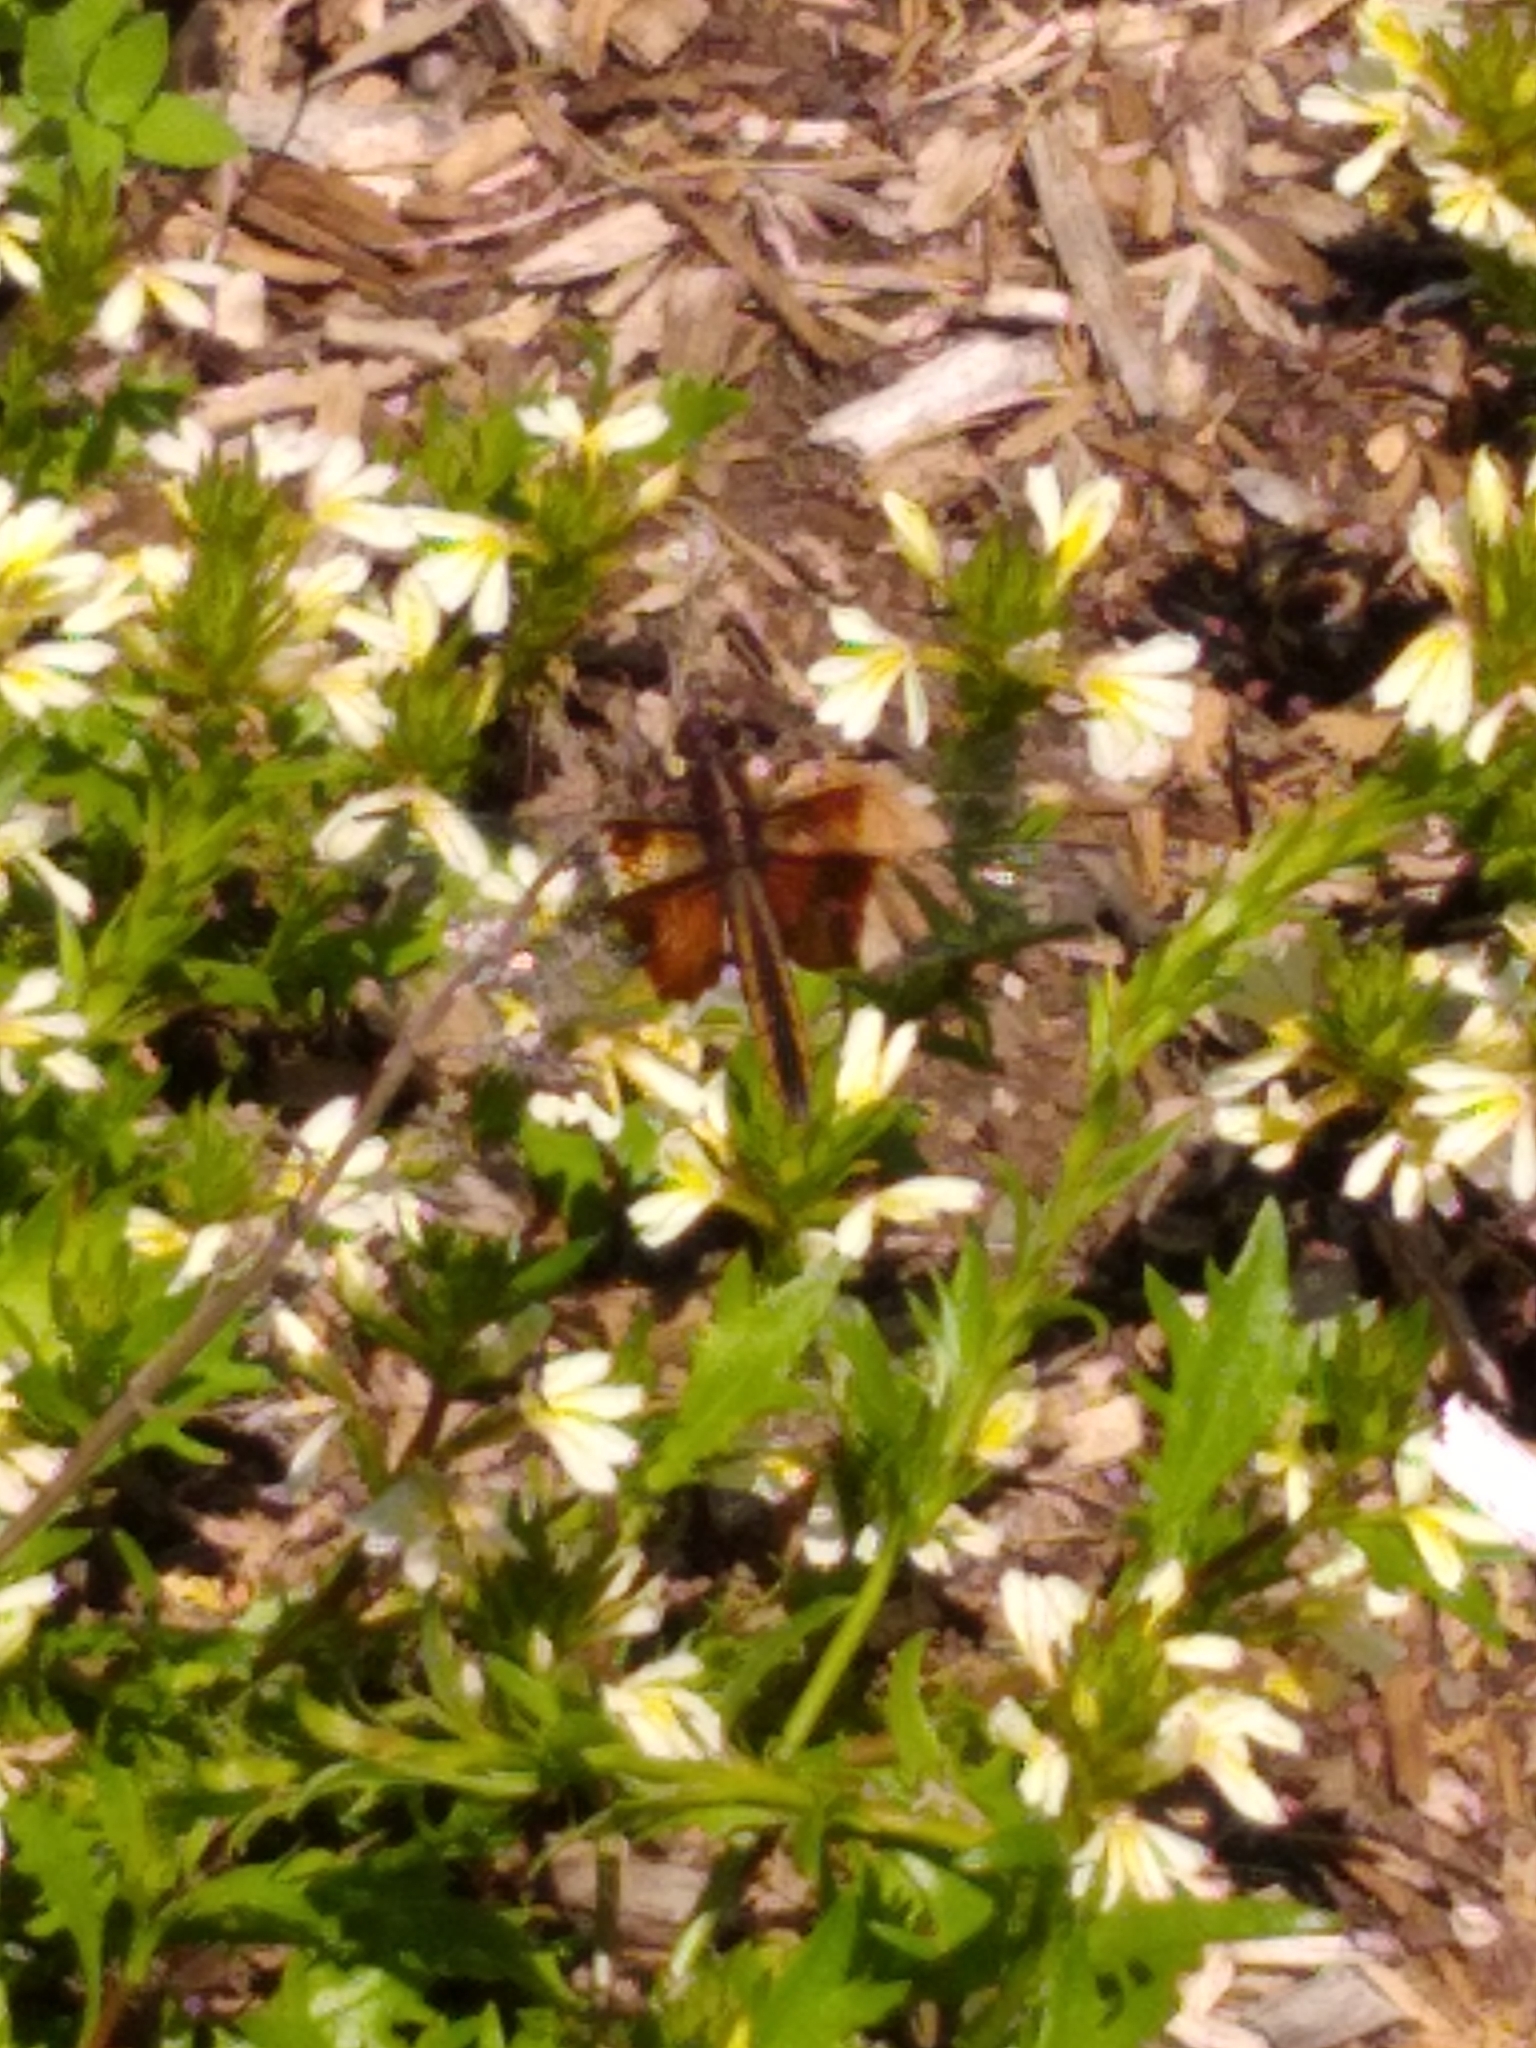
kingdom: Animalia
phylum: Arthropoda
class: Insecta
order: Odonata
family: Libellulidae
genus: Libellula
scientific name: Libellula luctuosa
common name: Widow skimmer
